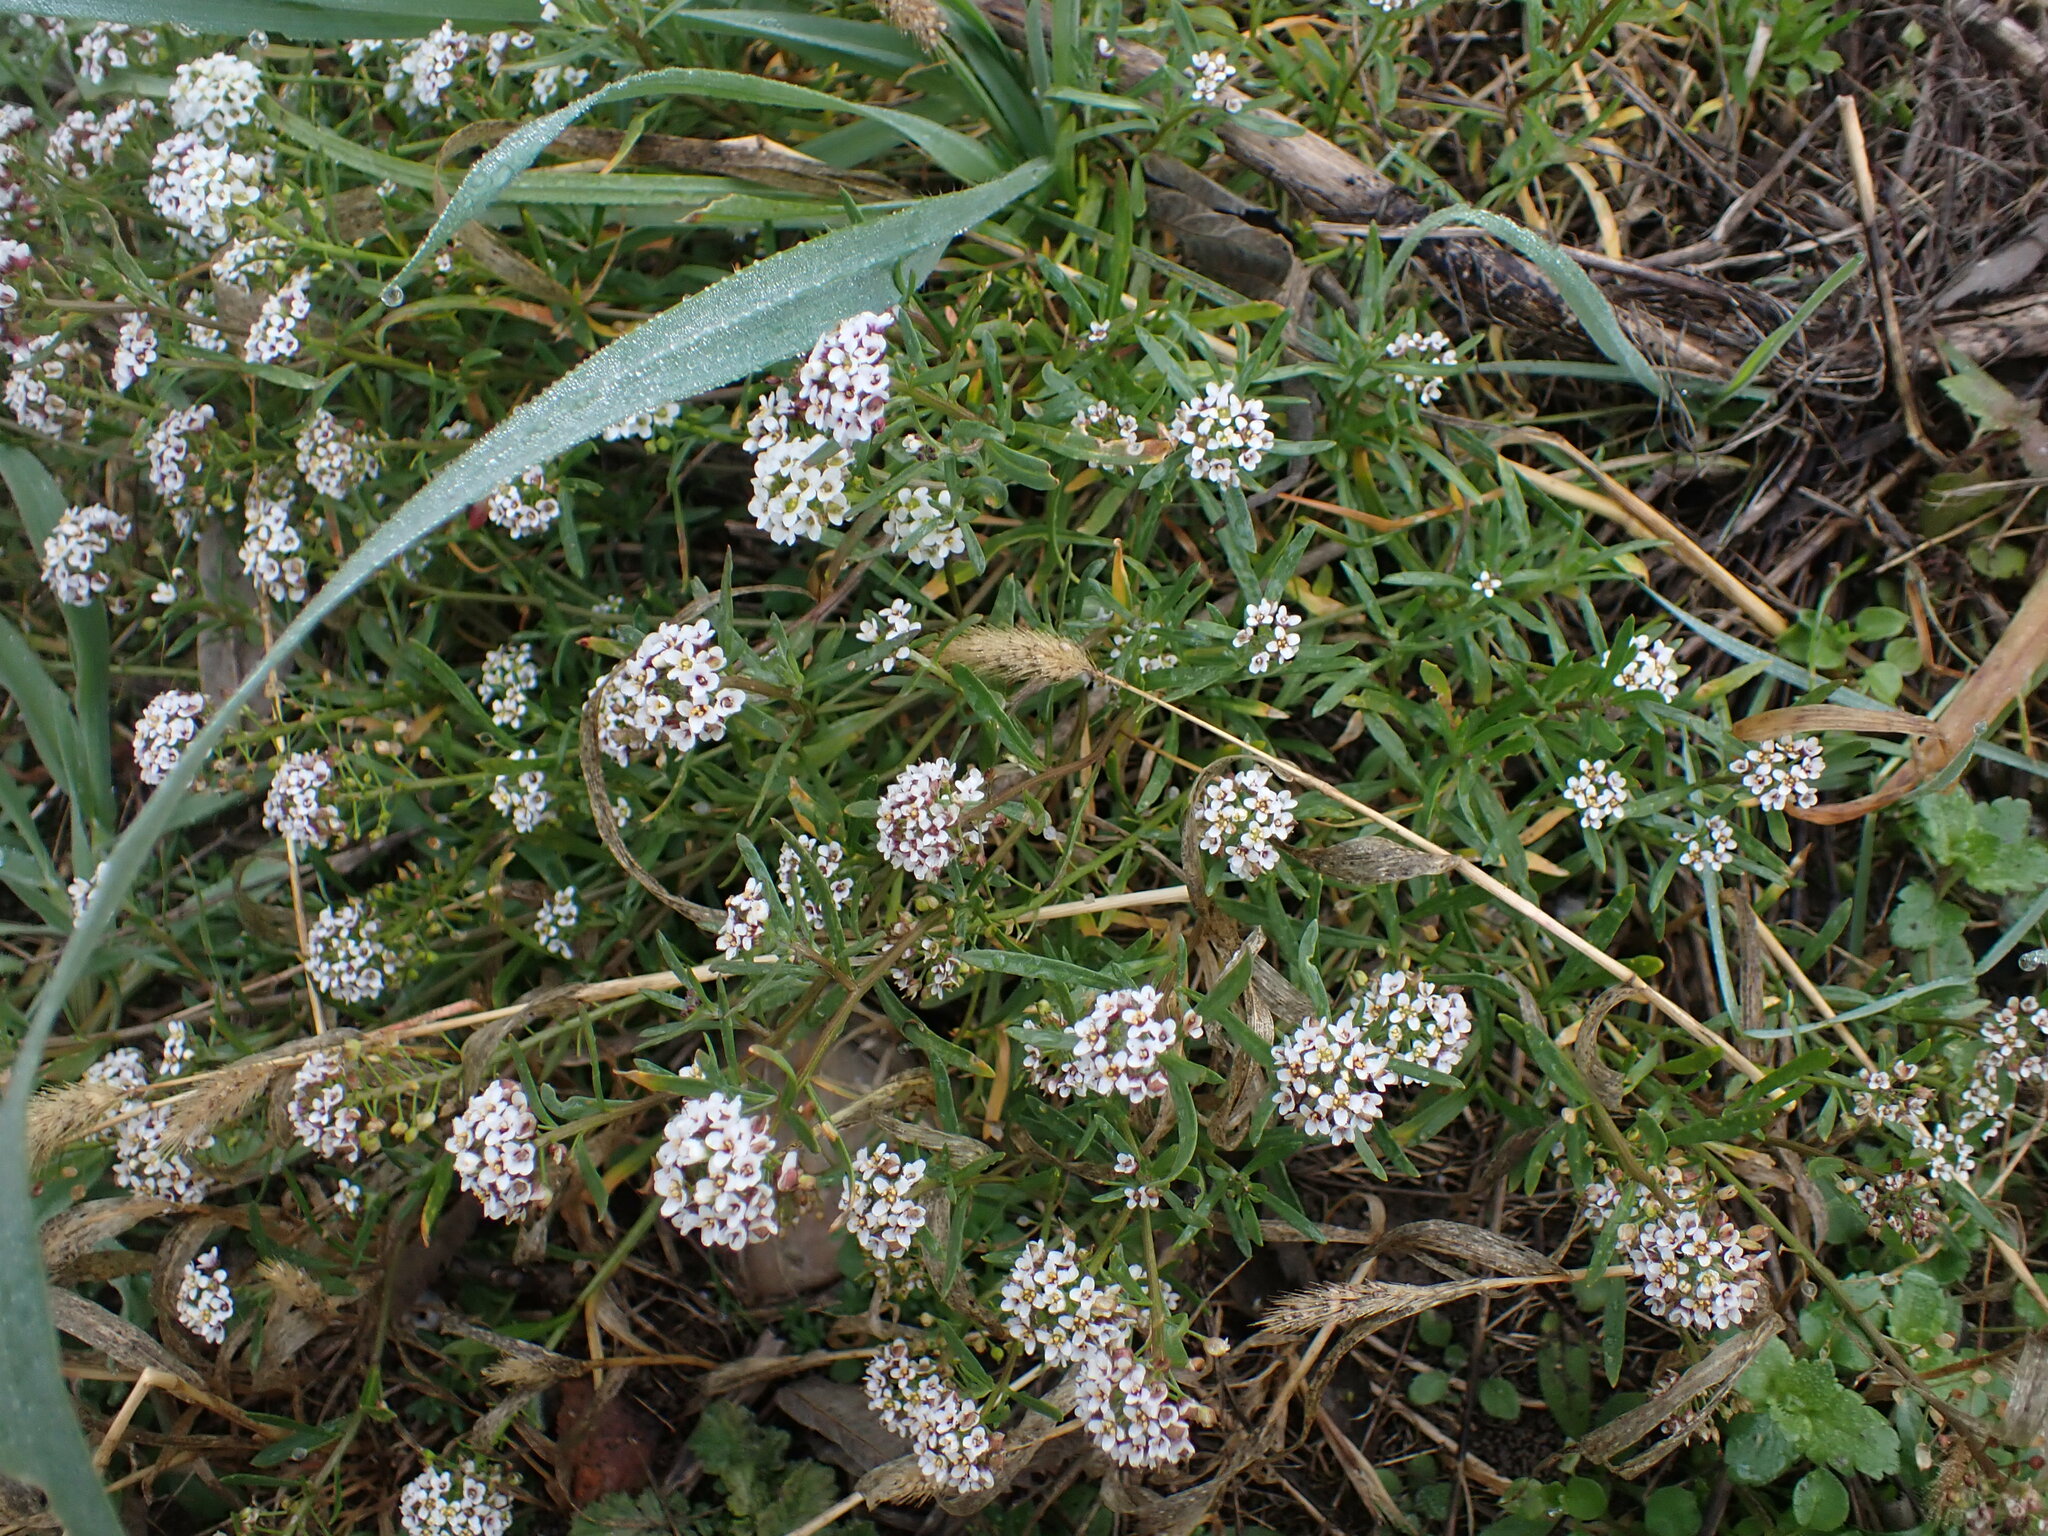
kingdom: Plantae
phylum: Tracheophyta
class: Magnoliopsida
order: Brassicales
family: Brassicaceae
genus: Lobularia
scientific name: Lobularia maritima
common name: Sweet alison
